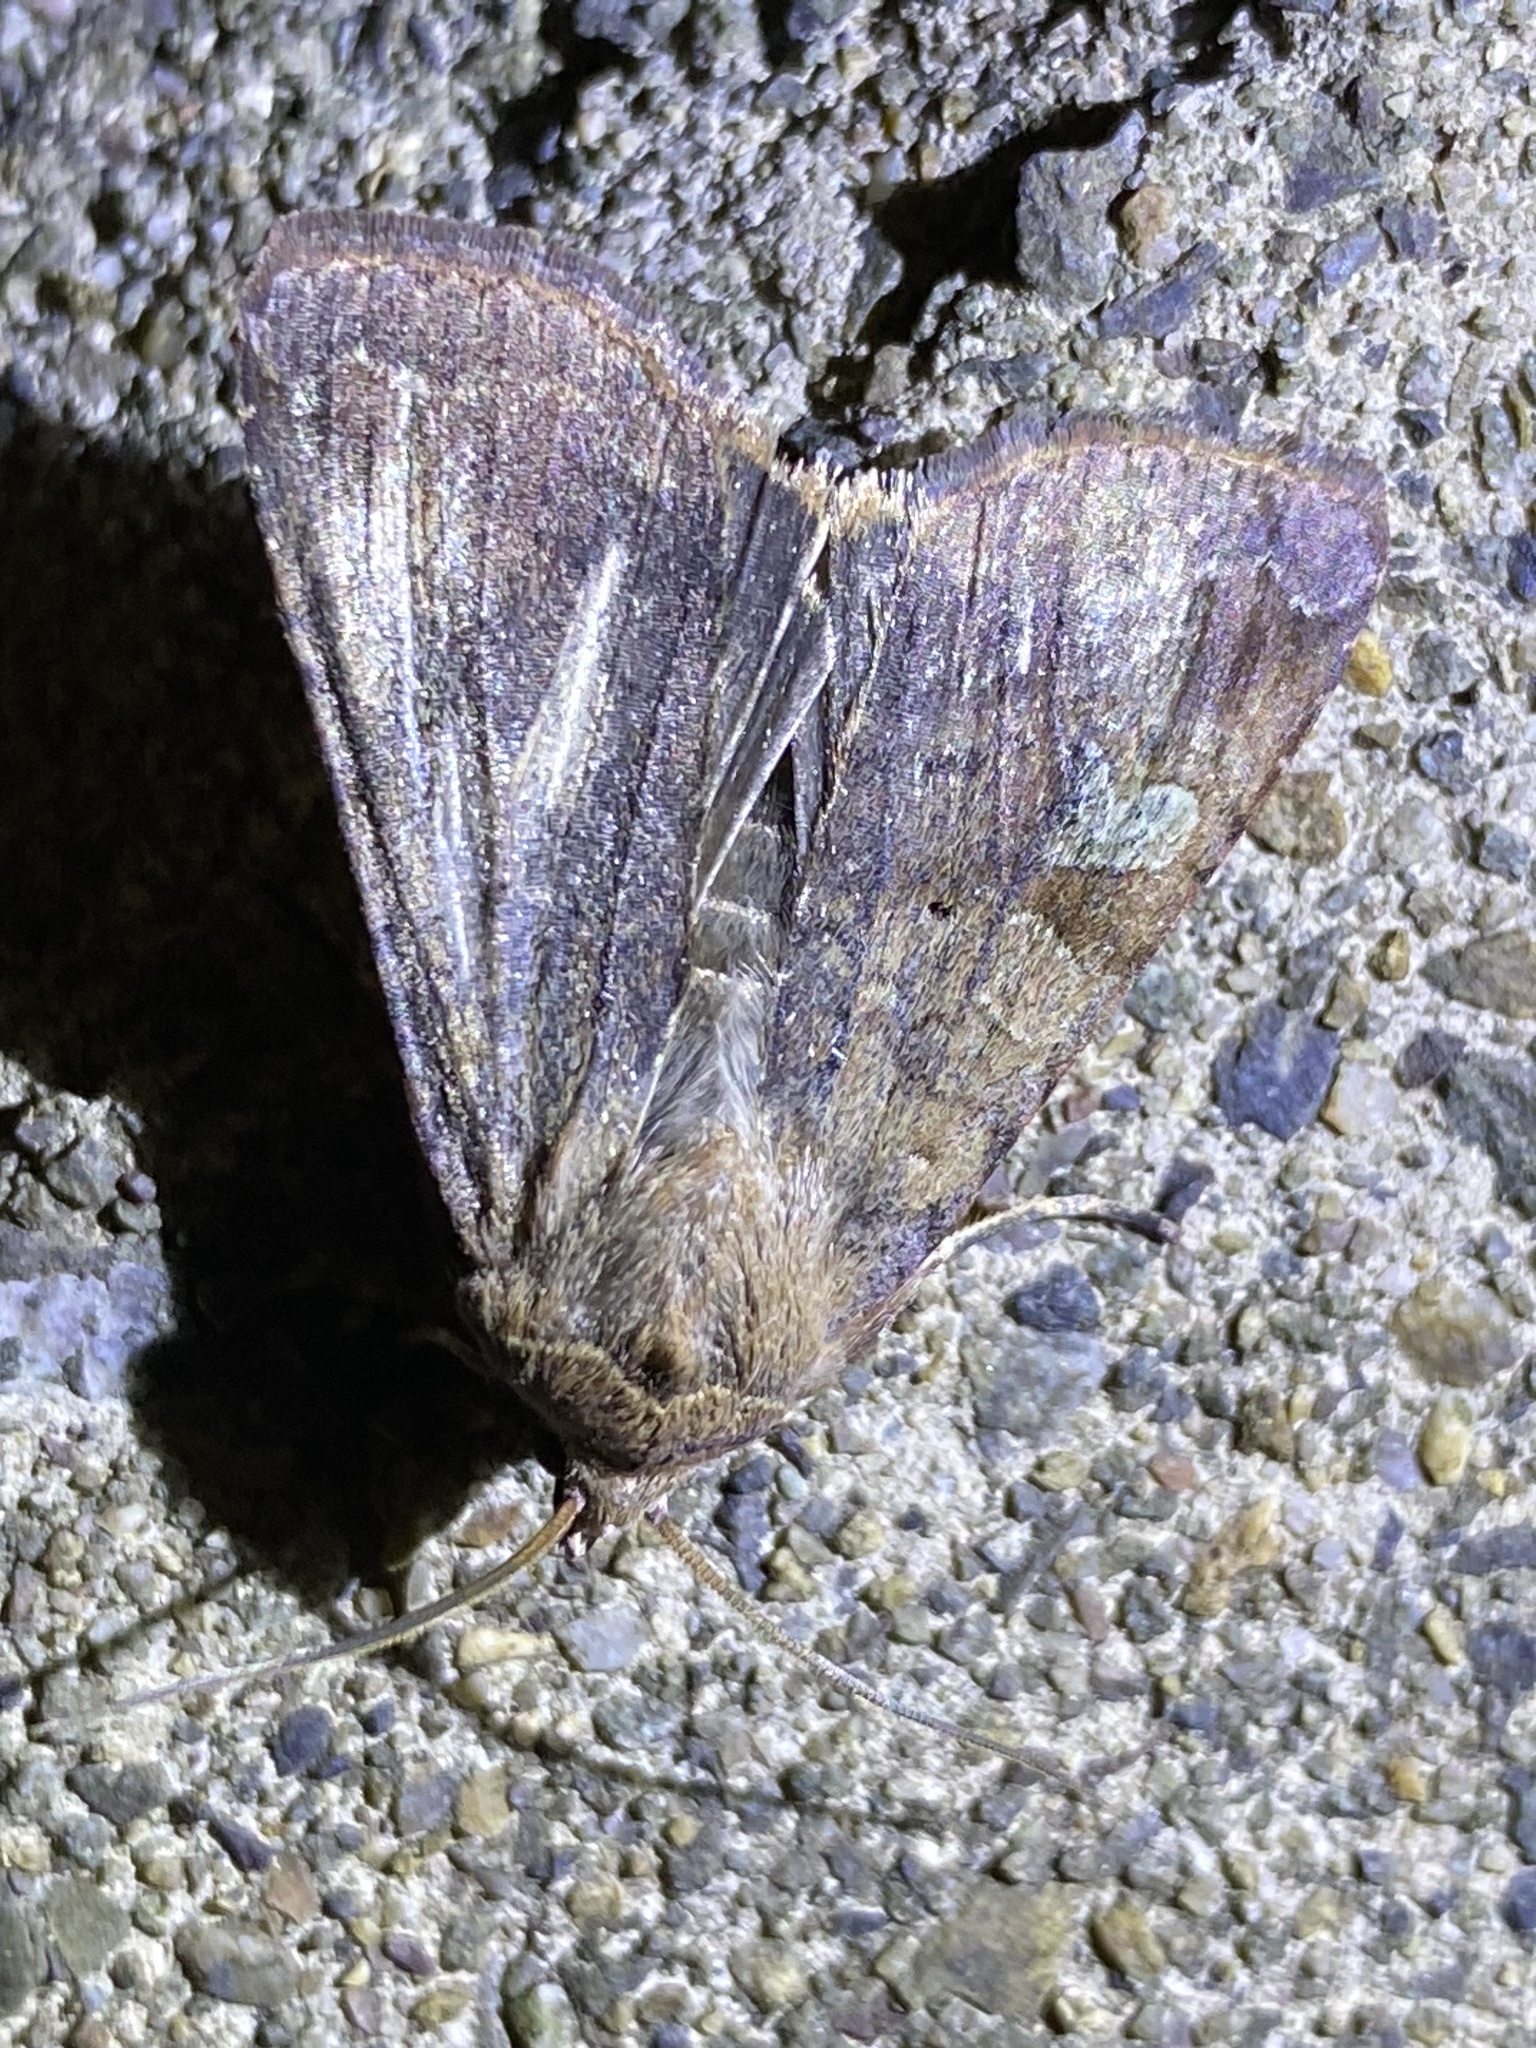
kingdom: Animalia
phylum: Arthropoda
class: Insecta
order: Lepidoptera
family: Noctuidae
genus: Diarsia
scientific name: Diarsia canescens
